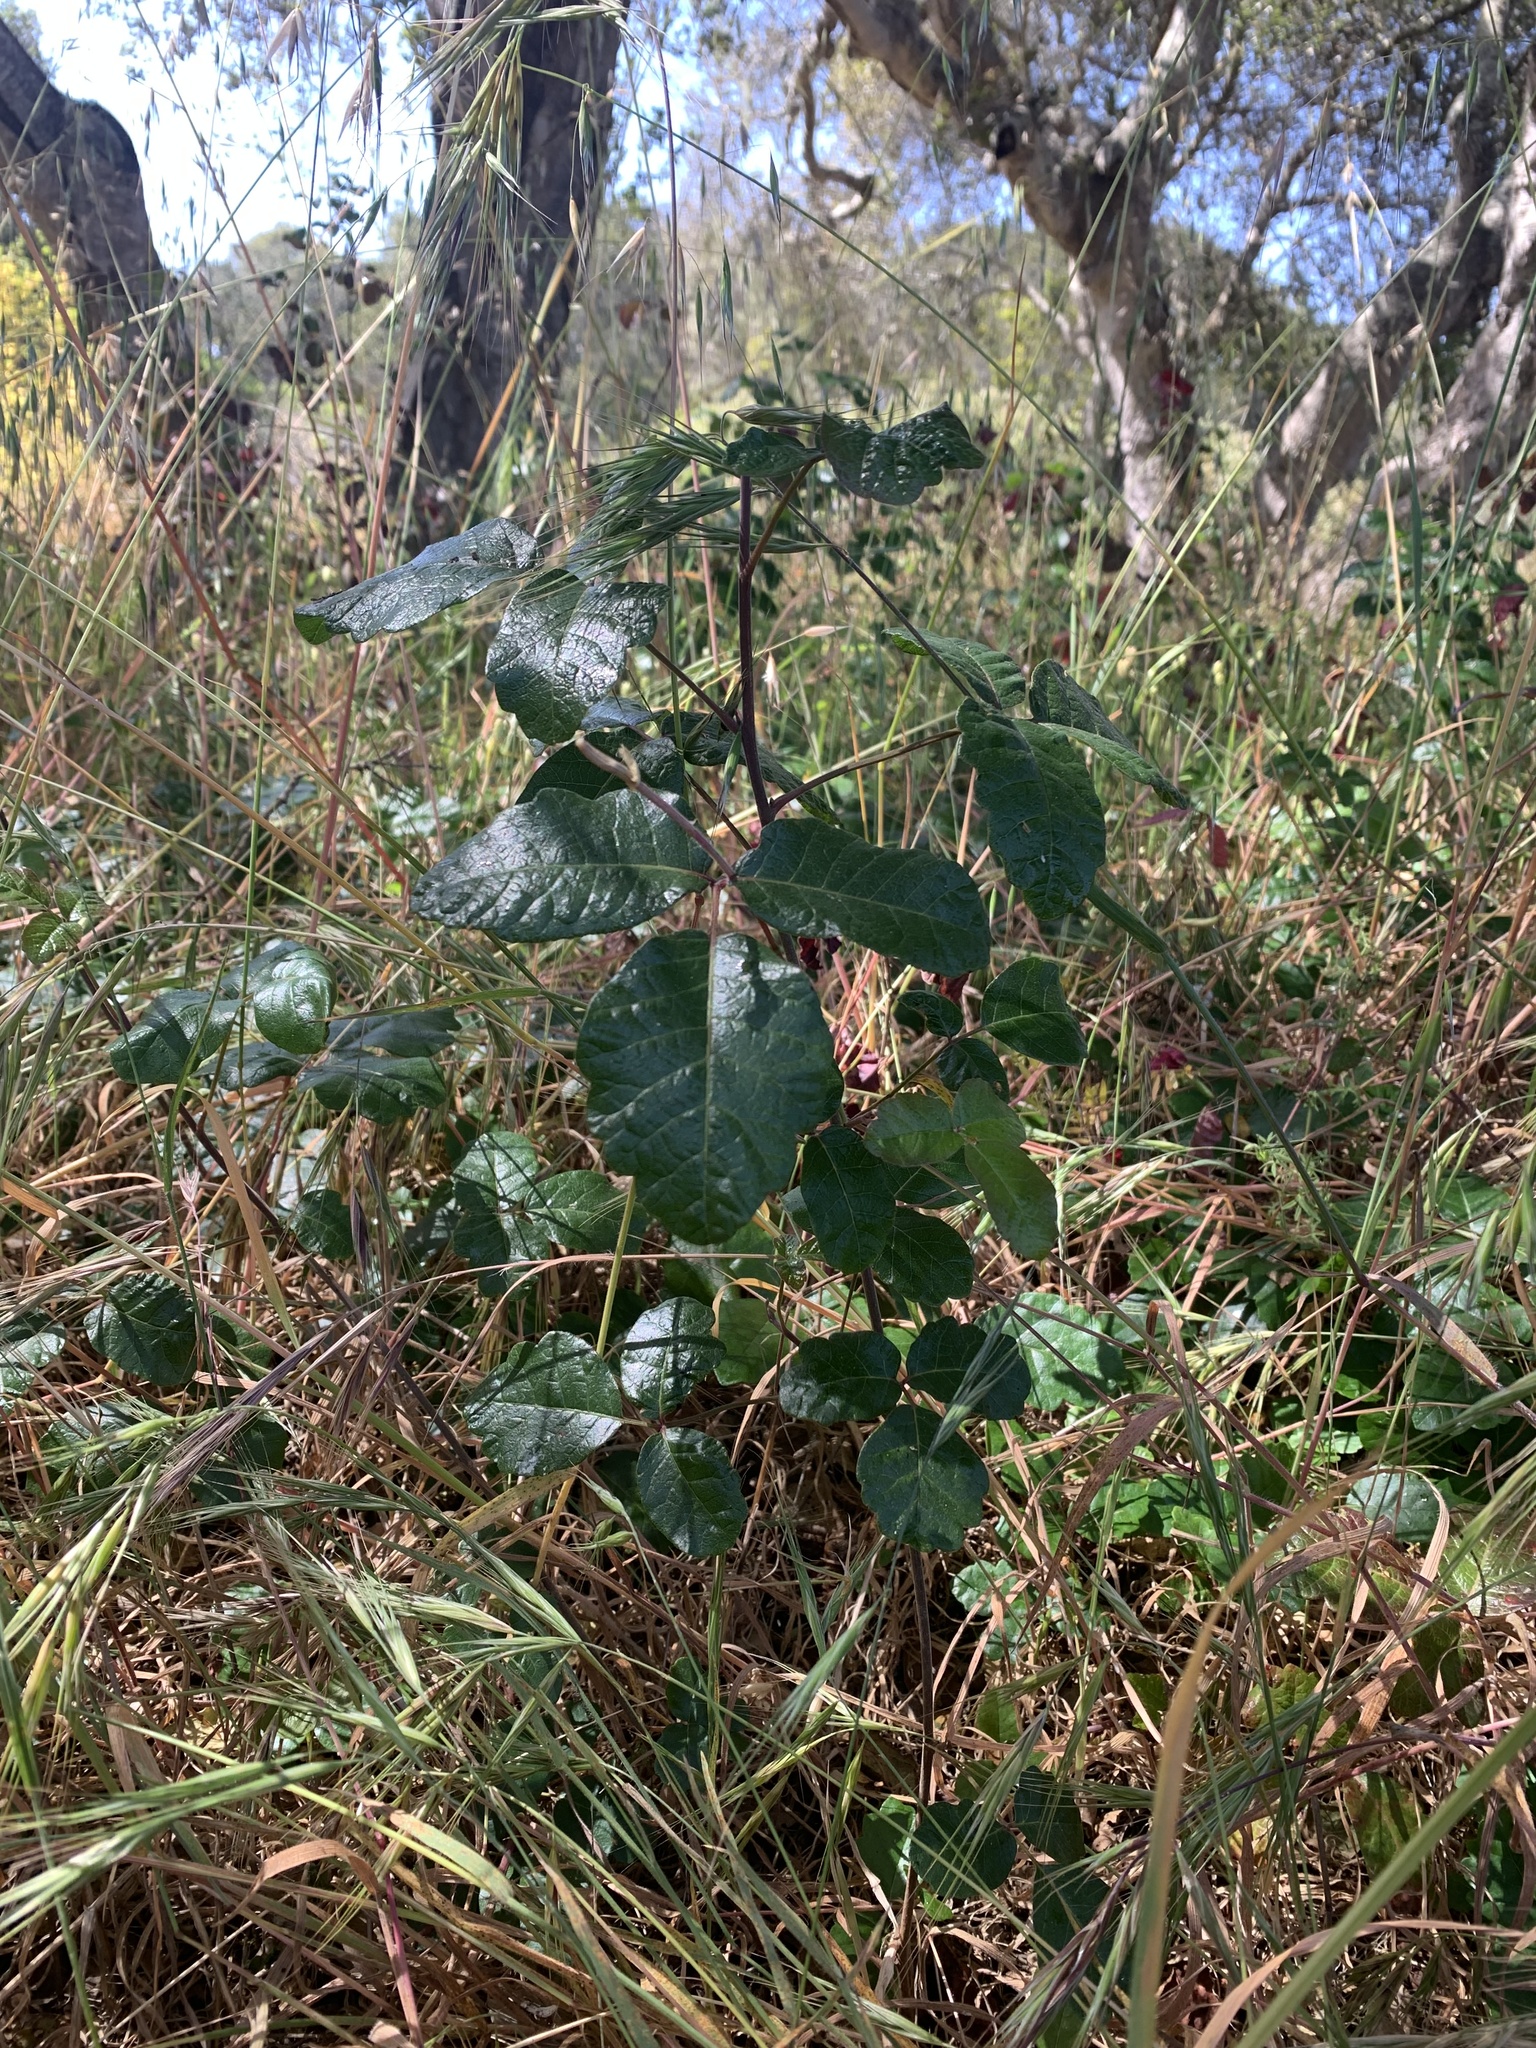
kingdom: Plantae
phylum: Tracheophyta
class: Magnoliopsida
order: Sapindales
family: Anacardiaceae
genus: Toxicodendron
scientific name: Toxicodendron diversilobum
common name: Pacific poison-oak
